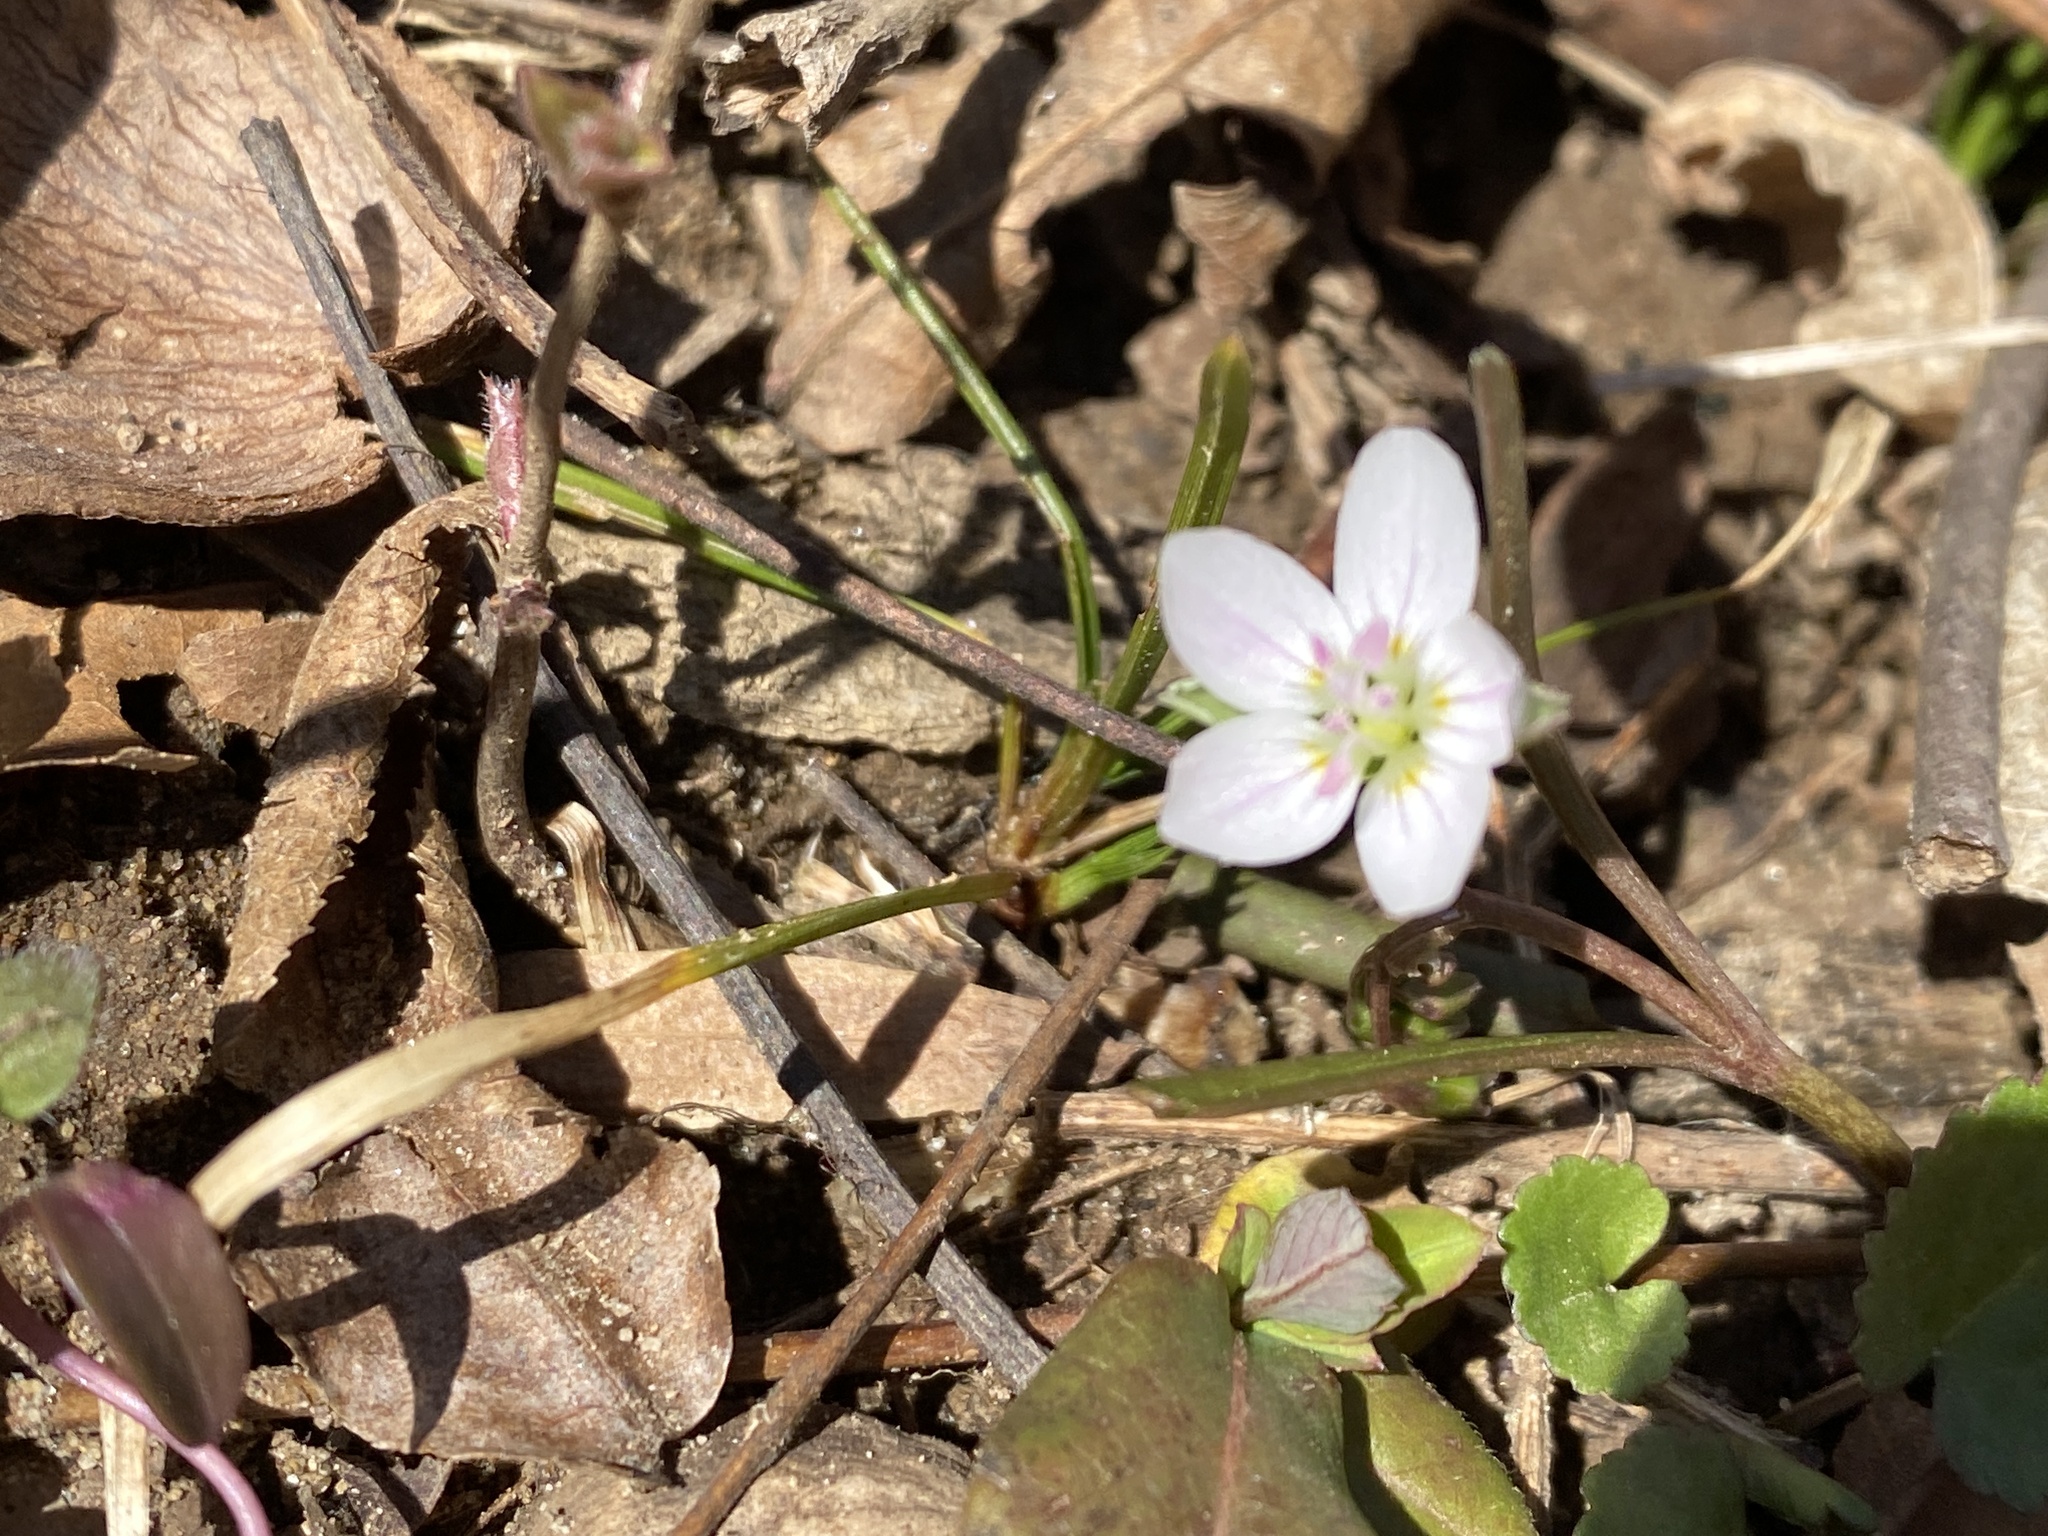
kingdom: Plantae
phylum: Tracheophyta
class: Magnoliopsida
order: Caryophyllales
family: Montiaceae
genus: Claytonia
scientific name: Claytonia virginica
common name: Virginia springbeauty
